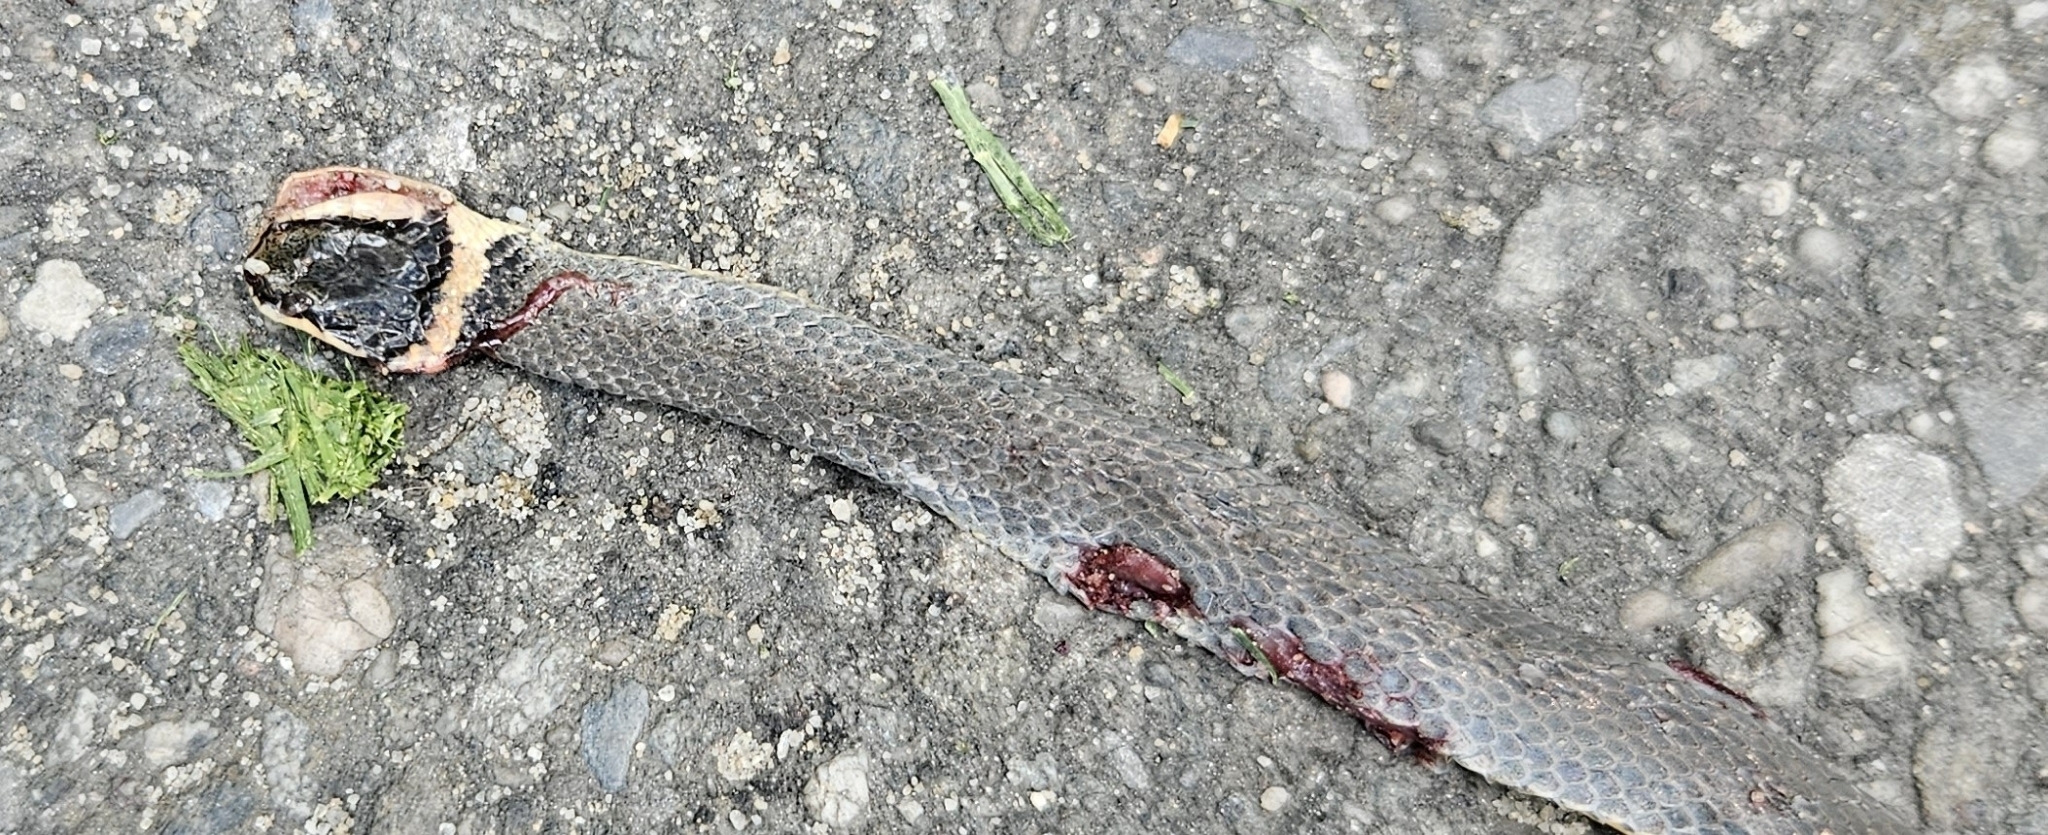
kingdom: Animalia
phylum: Chordata
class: Squamata
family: Colubridae
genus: Diadophis
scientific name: Diadophis punctatus
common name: Ringneck snake
